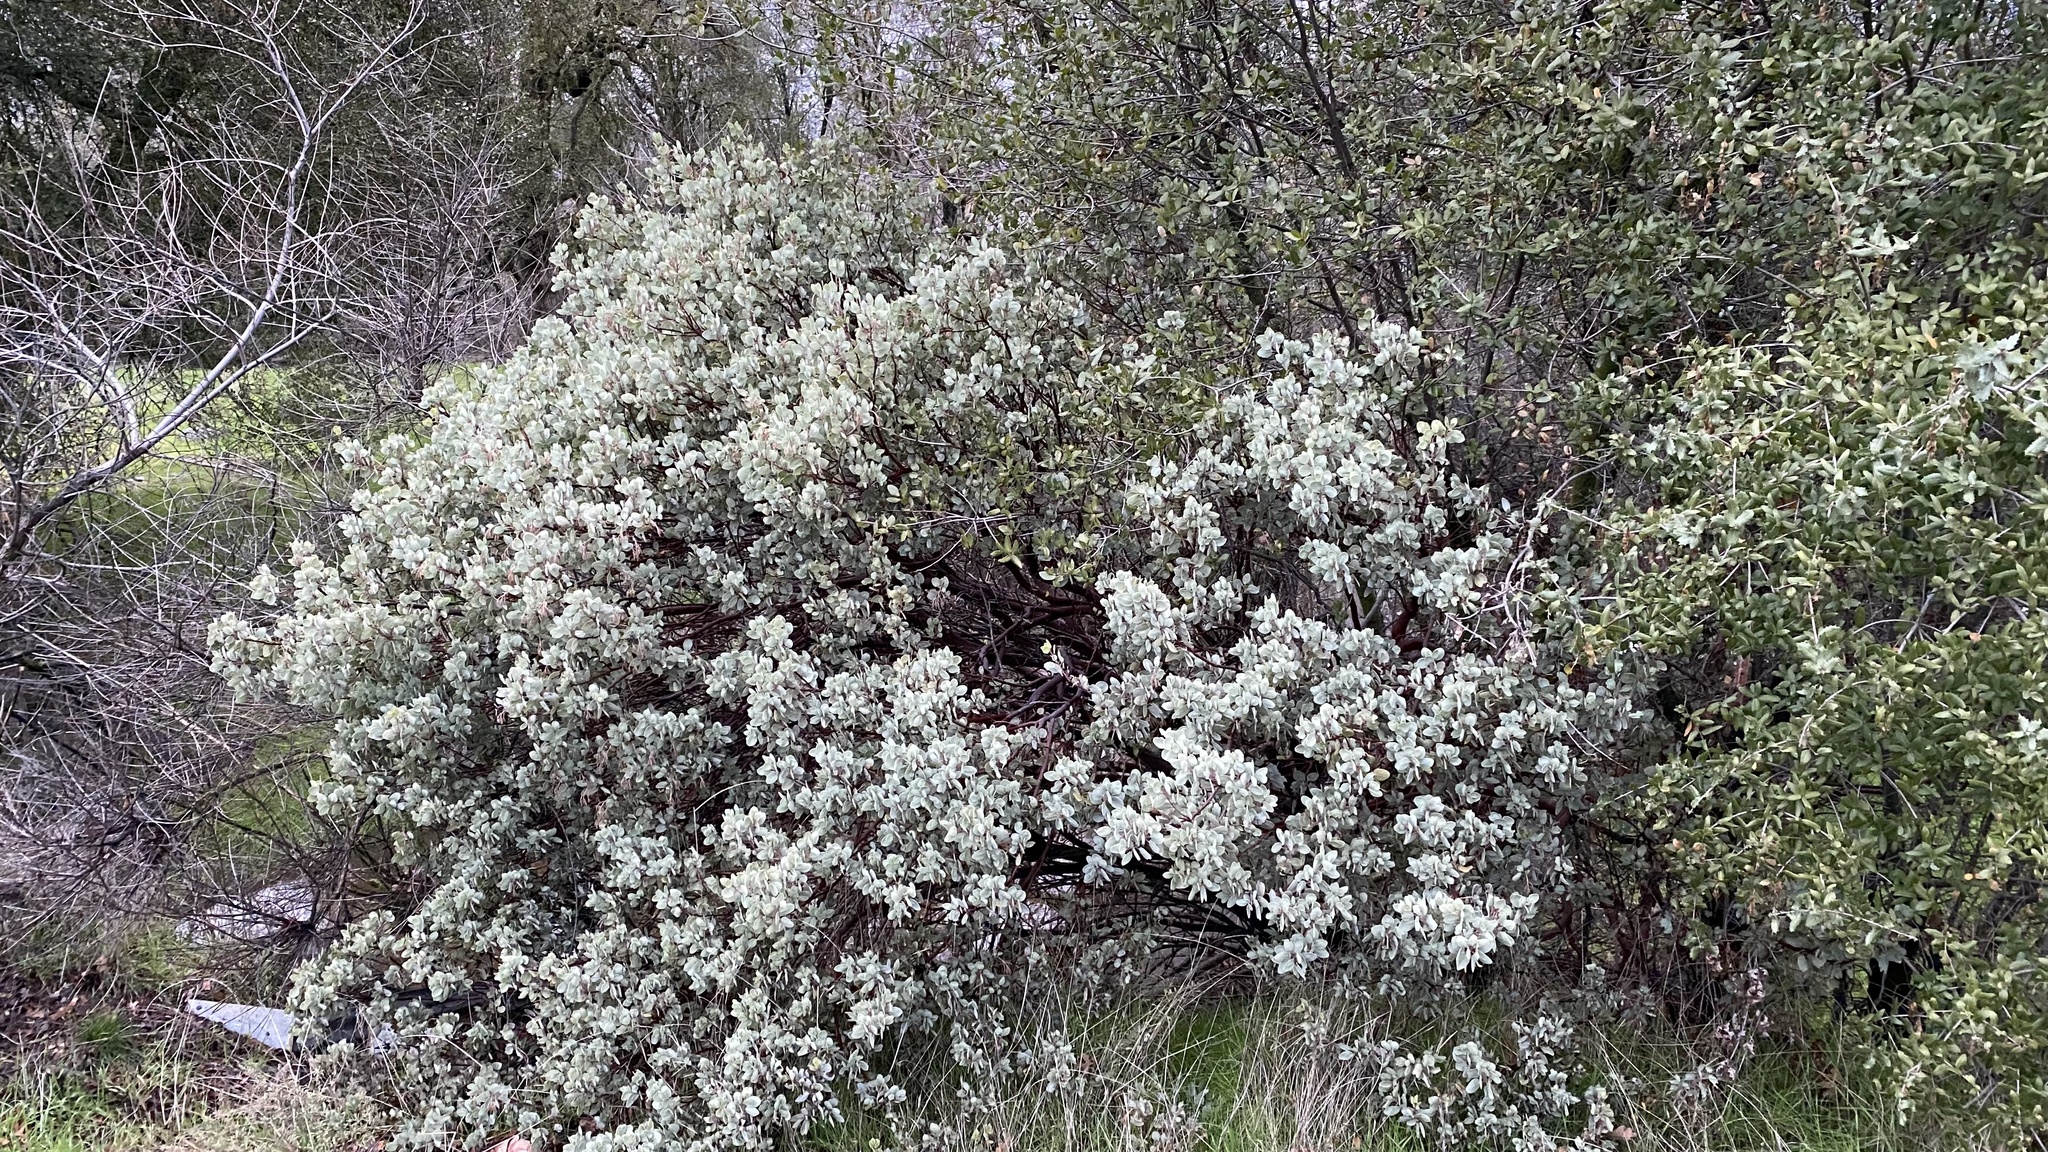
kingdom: Plantae
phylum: Tracheophyta
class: Magnoliopsida
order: Ericales
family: Ericaceae
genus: Arctostaphylos
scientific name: Arctostaphylos viscida
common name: White-leaf manzanita
